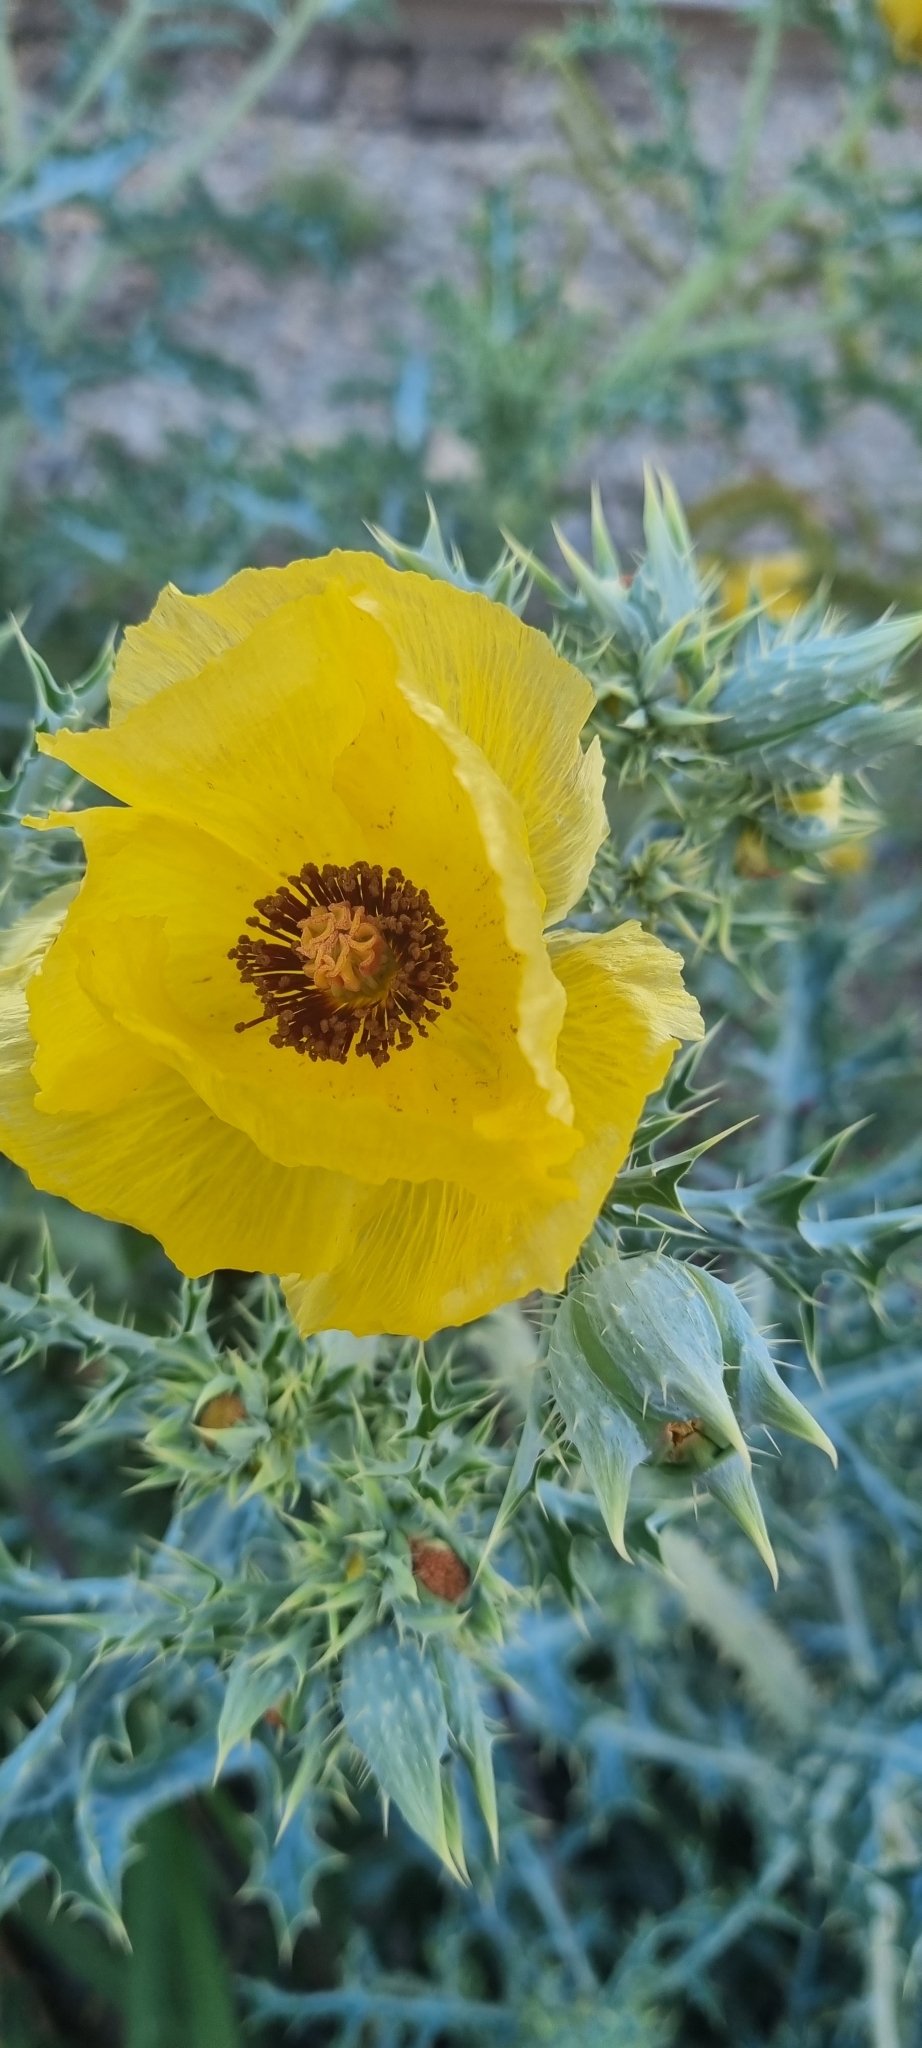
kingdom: Plantae
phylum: Tracheophyta
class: Magnoliopsida
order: Ranunculales
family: Papaveraceae
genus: Argemone
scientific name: Argemone aenea
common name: Golden prickly-poppy
